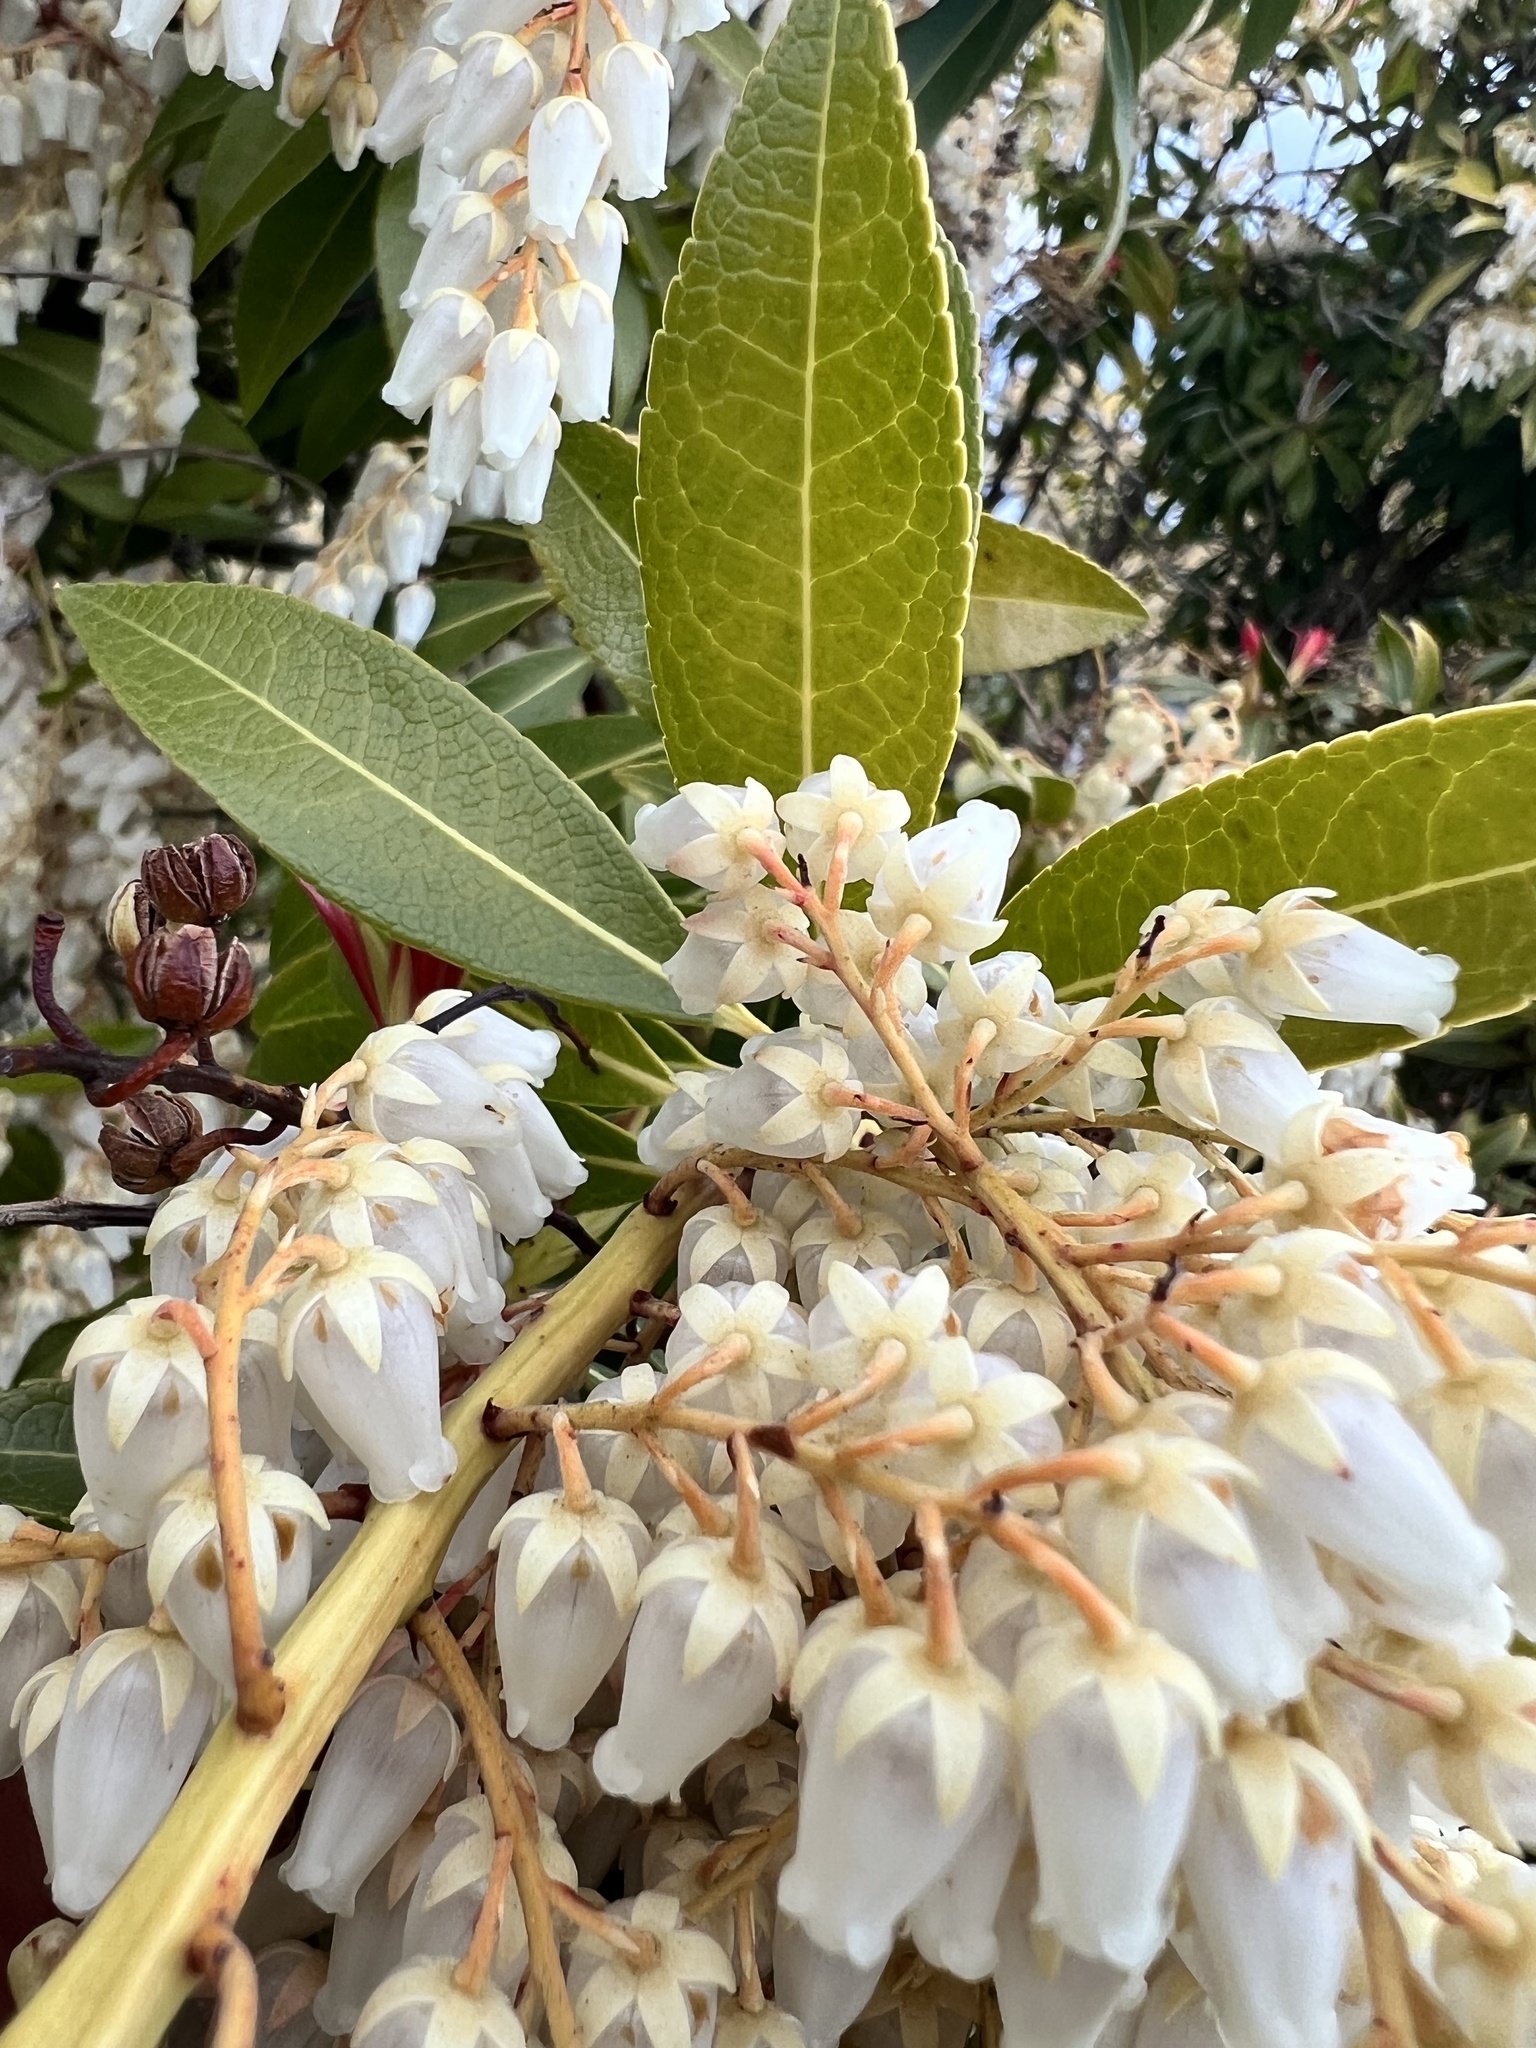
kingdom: Plantae
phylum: Tracheophyta
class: Magnoliopsida
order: Ericales
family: Ericaceae
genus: Pieris
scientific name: Pieris japonica
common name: Japanese pieris
